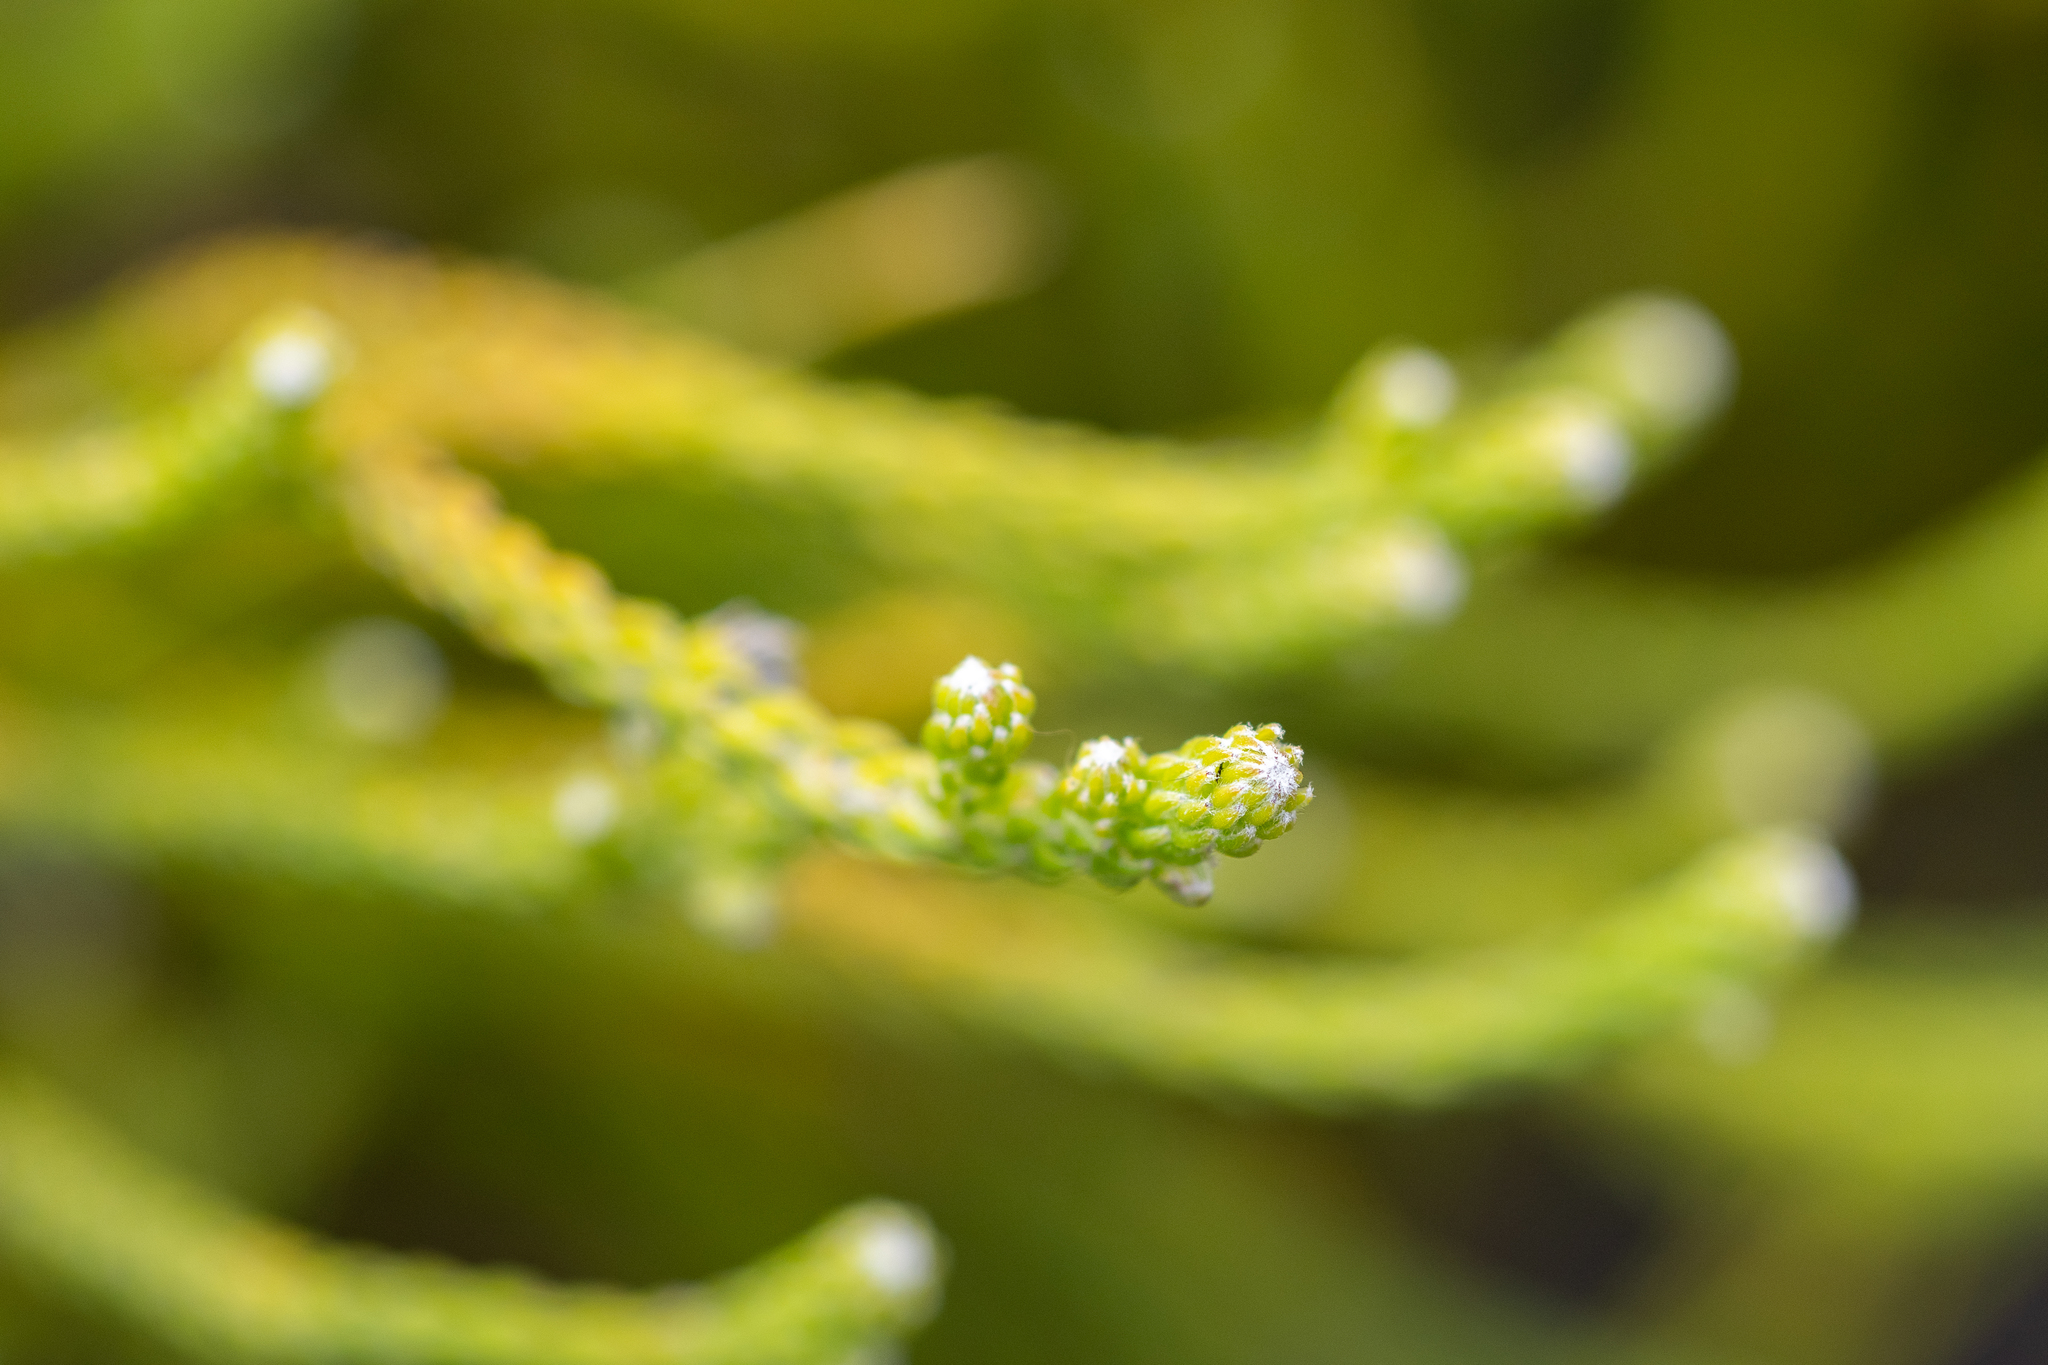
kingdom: Plantae
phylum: Tracheophyta
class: Magnoliopsida
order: Bruniales
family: Bruniaceae
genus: Brunia
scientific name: Brunia noduliflora
